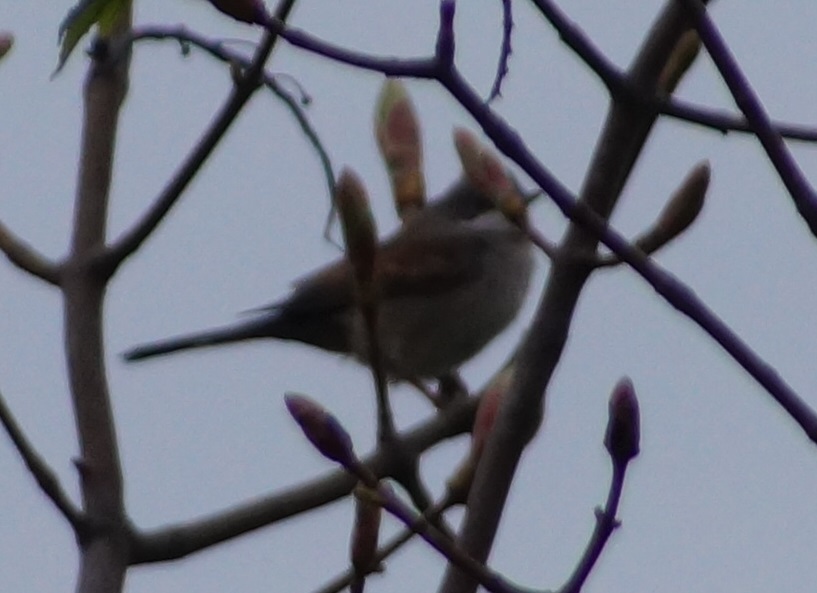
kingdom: Animalia
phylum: Chordata
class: Aves
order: Passeriformes
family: Sylviidae
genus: Sylvia
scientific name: Sylvia communis
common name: Common whitethroat
